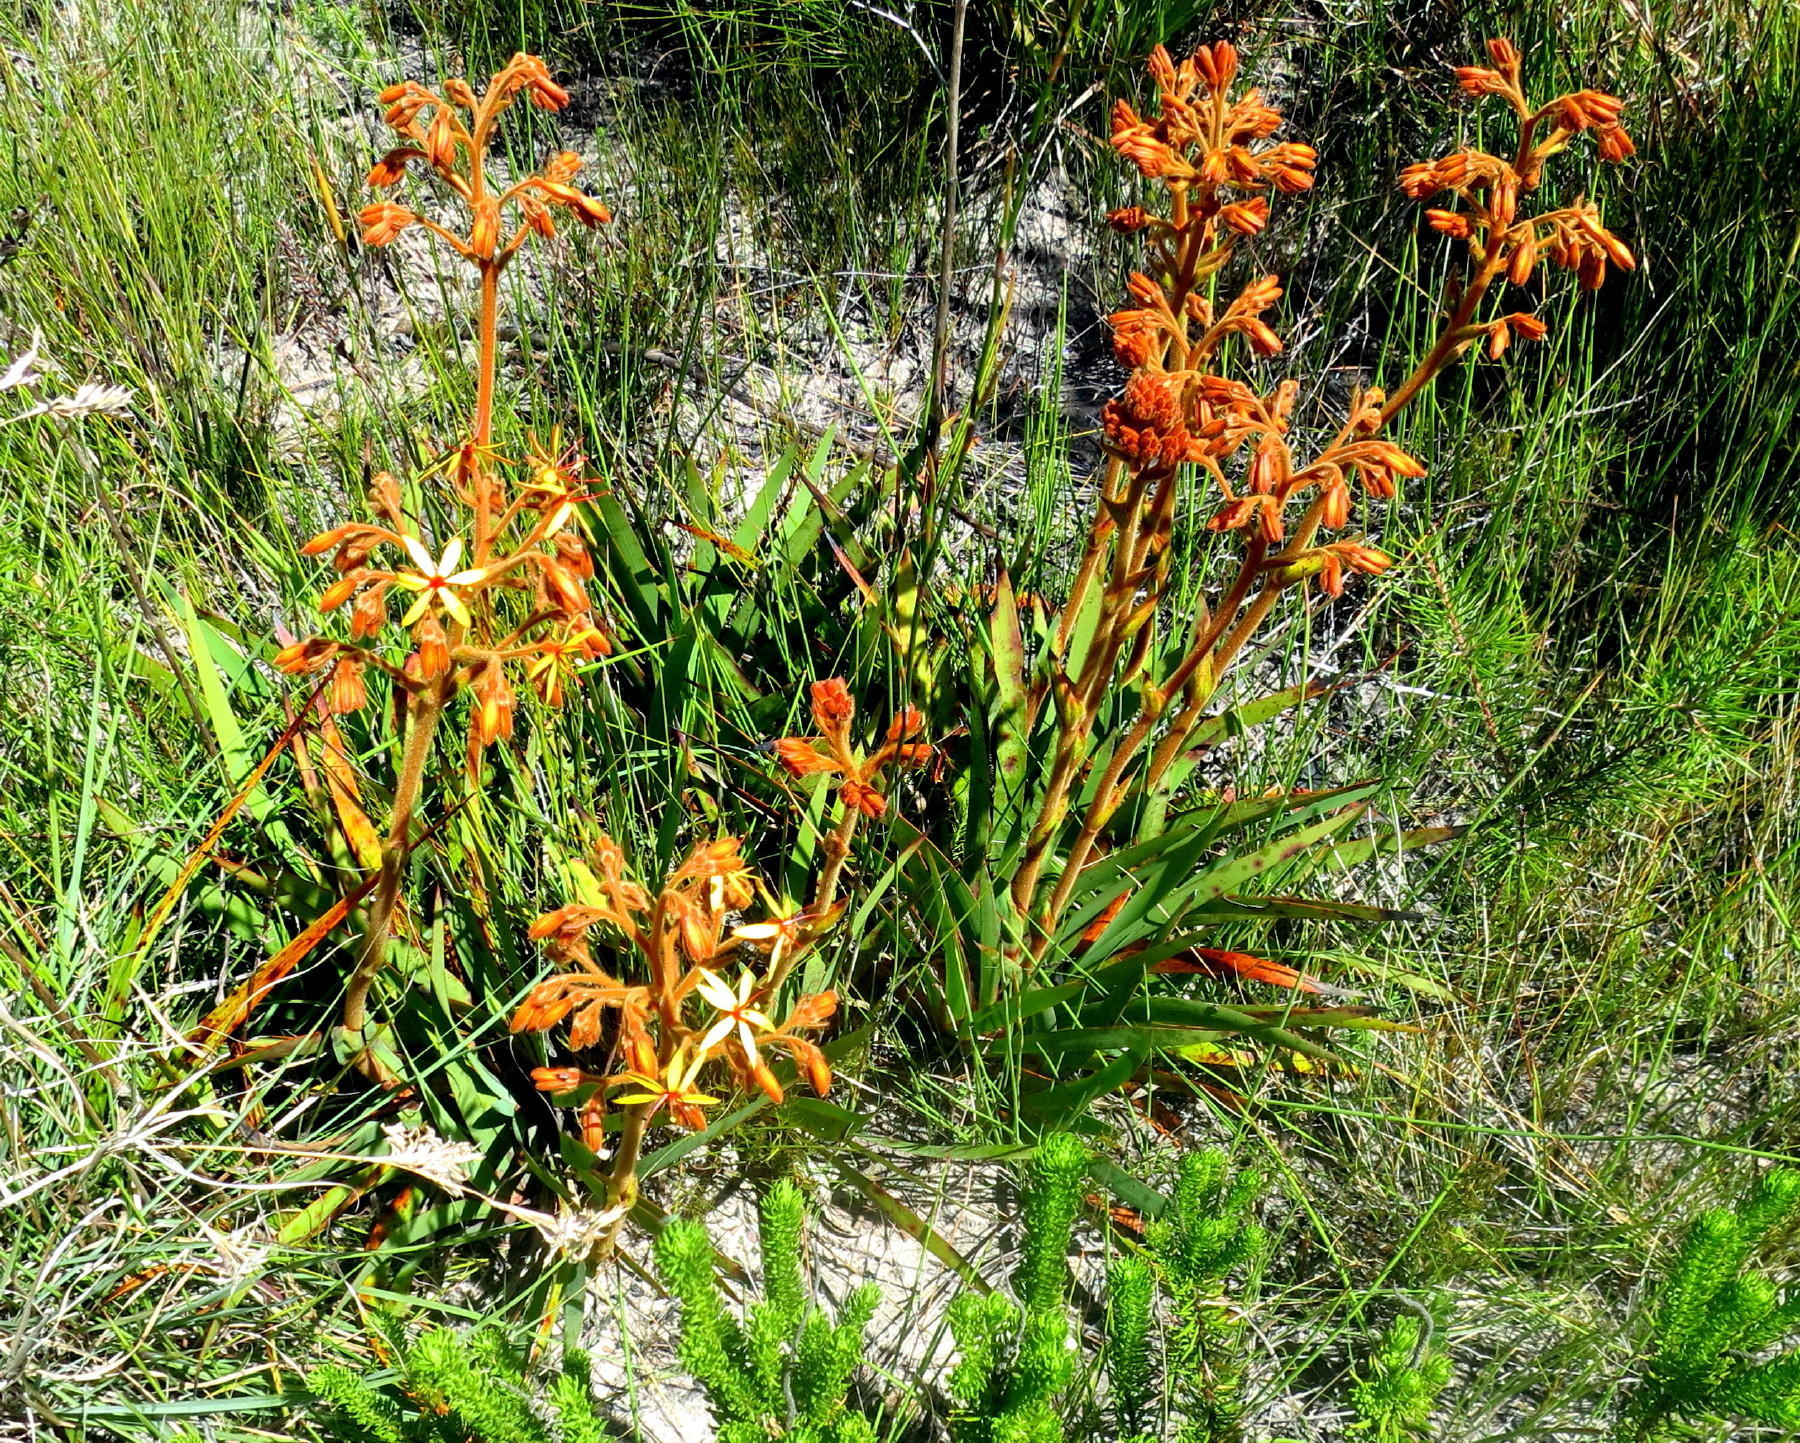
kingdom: Plantae
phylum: Tracheophyta
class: Liliopsida
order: Commelinales
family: Haemodoraceae
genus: Dilatris
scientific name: Dilatris viscosa
